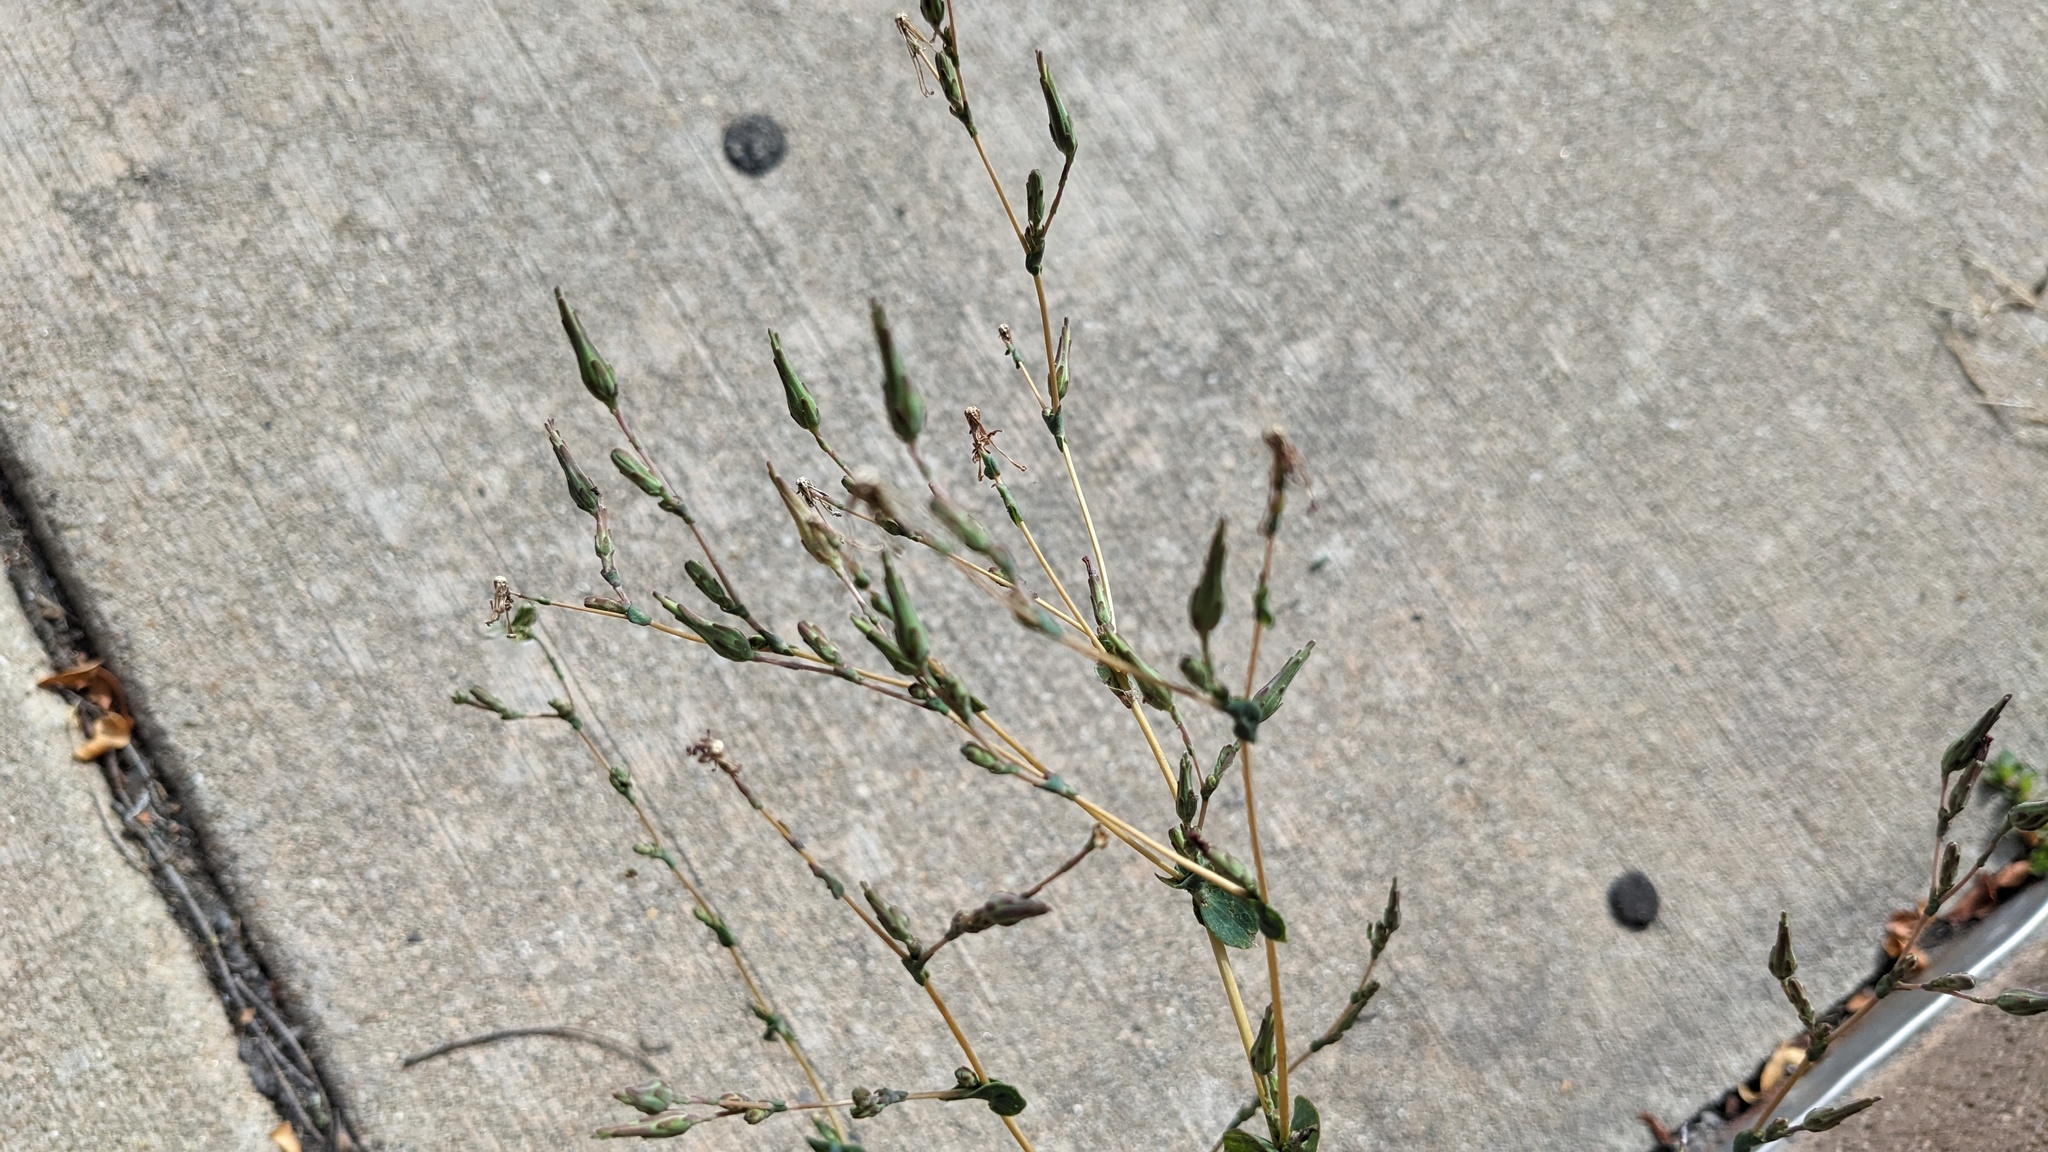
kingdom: Plantae
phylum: Tracheophyta
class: Magnoliopsida
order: Asterales
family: Asteraceae
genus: Lactuca
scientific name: Lactuca serriola
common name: Prickly lettuce
